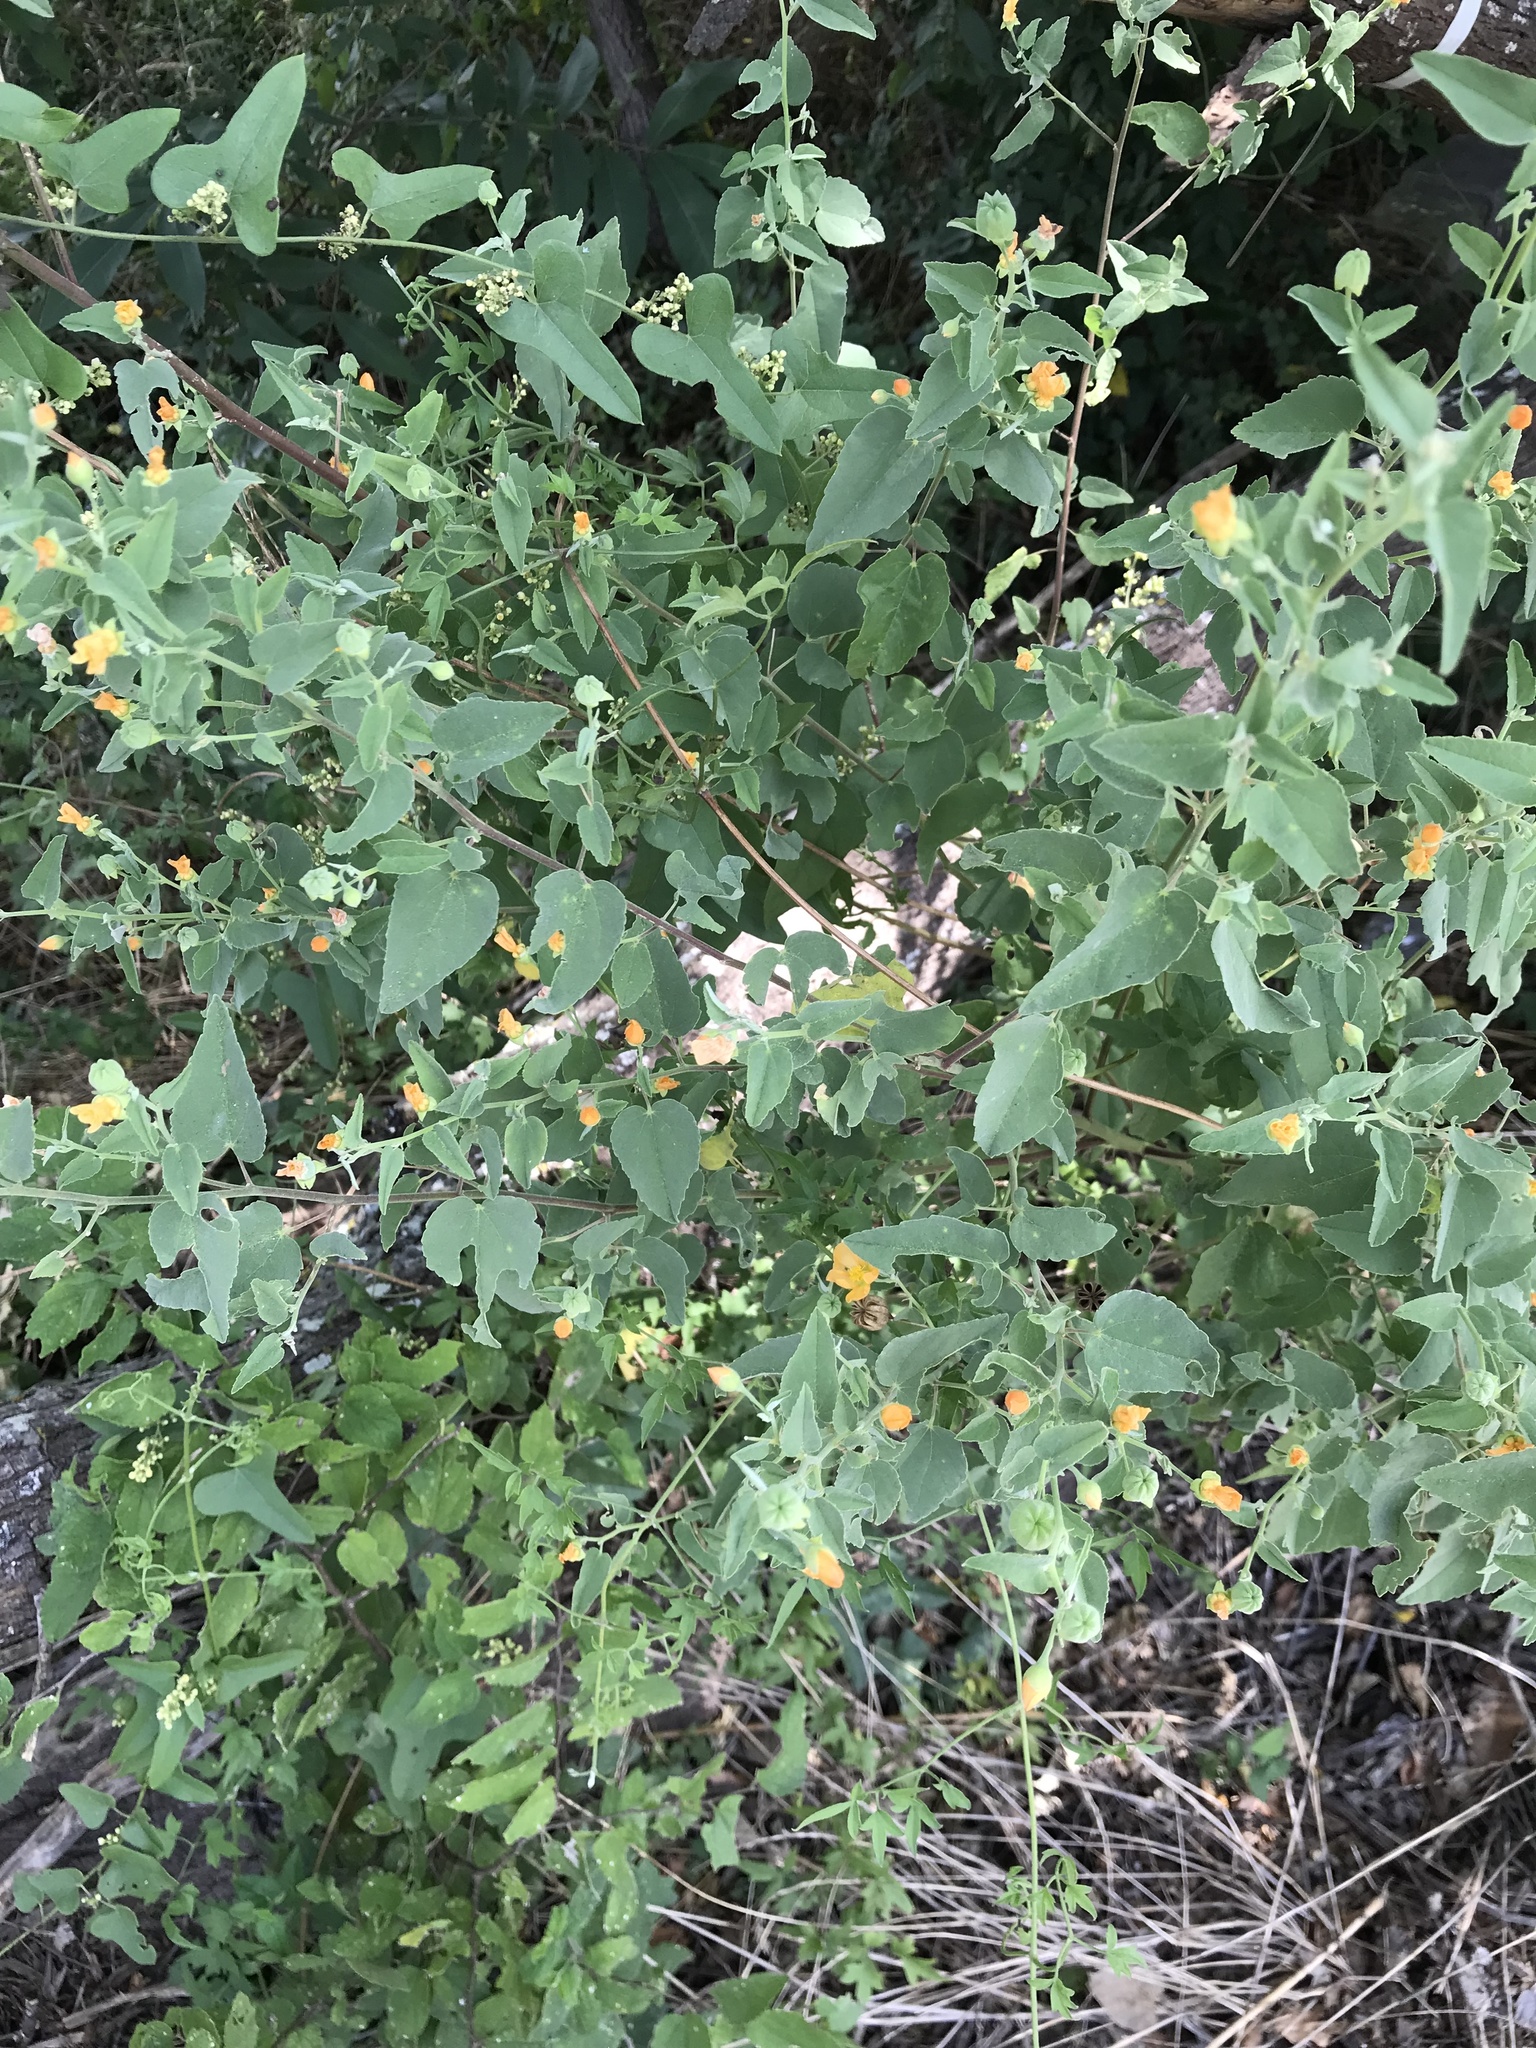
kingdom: Plantae
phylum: Tracheophyta
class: Magnoliopsida
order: Malvales
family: Malvaceae
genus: Abutilon
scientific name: Abutilon fruticosum
